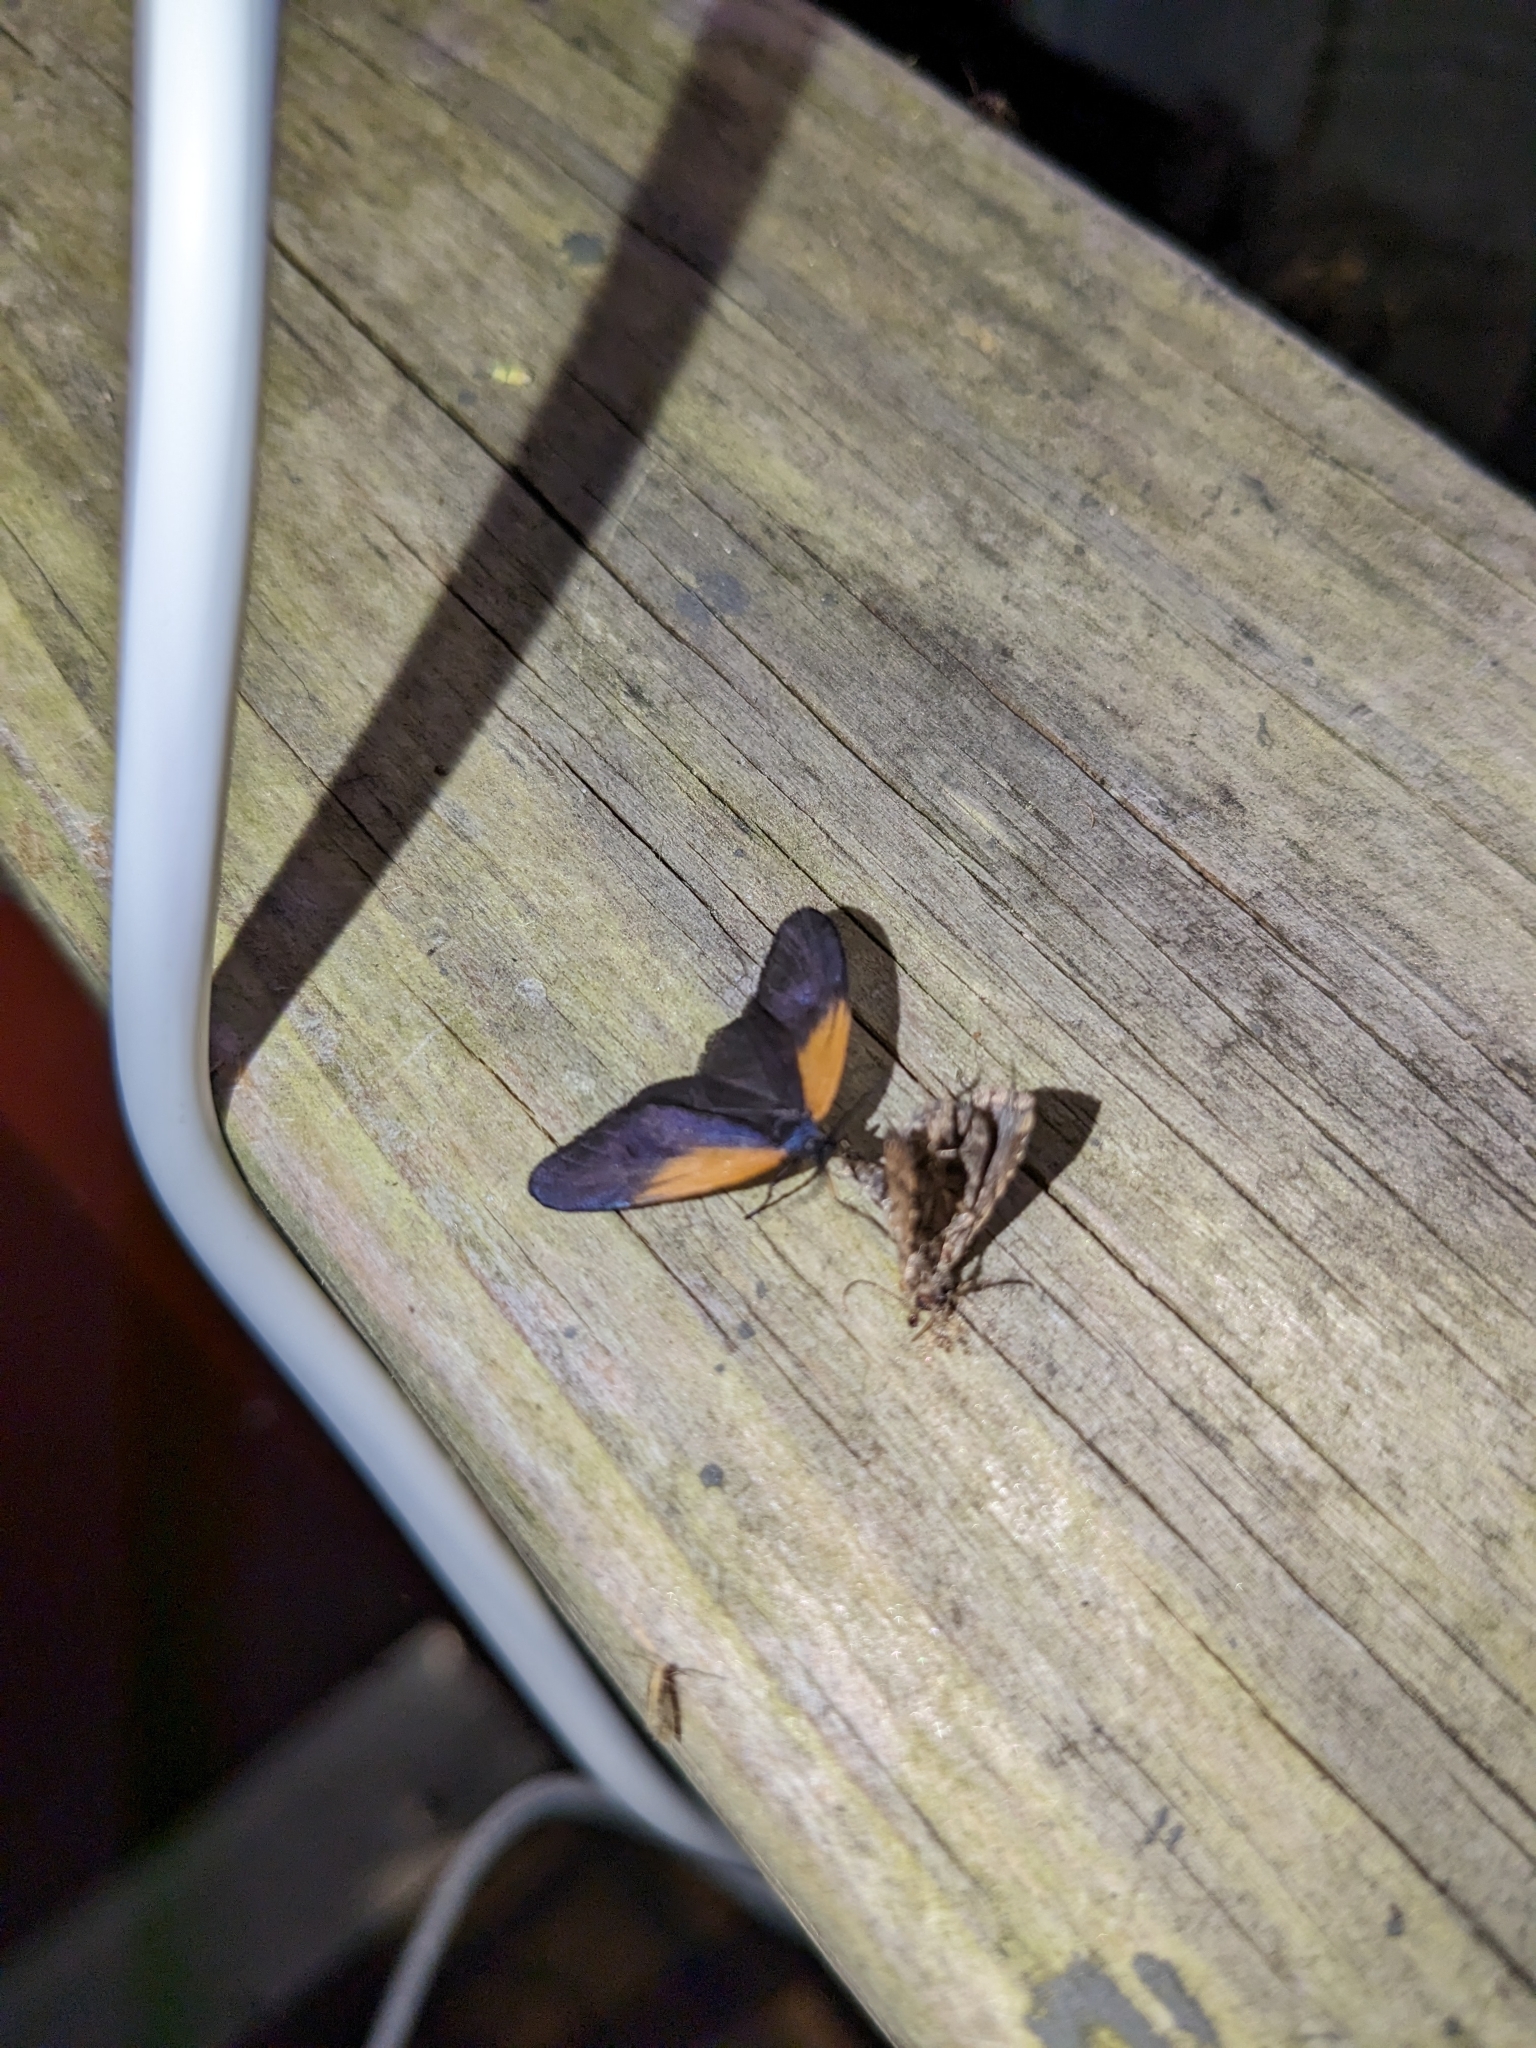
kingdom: Animalia
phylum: Arthropoda
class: Insecta
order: Lepidoptera
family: Zygaenidae
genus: Malthaca
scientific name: Malthaca dimidiata
